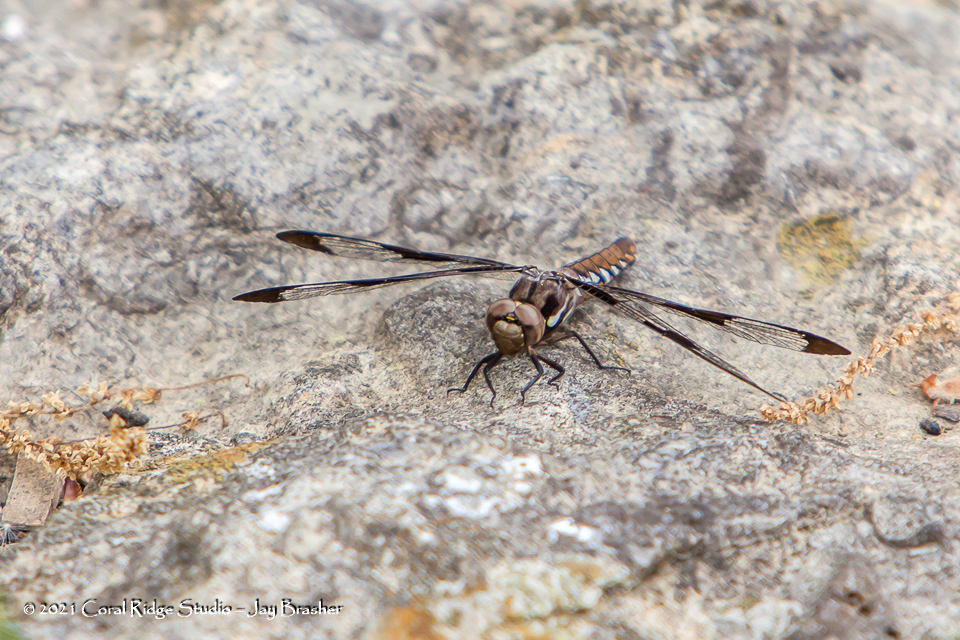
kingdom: Animalia
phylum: Arthropoda
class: Insecta
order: Odonata
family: Libellulidae
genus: Plathemis
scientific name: Plathemis lydia
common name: Common whitetail
